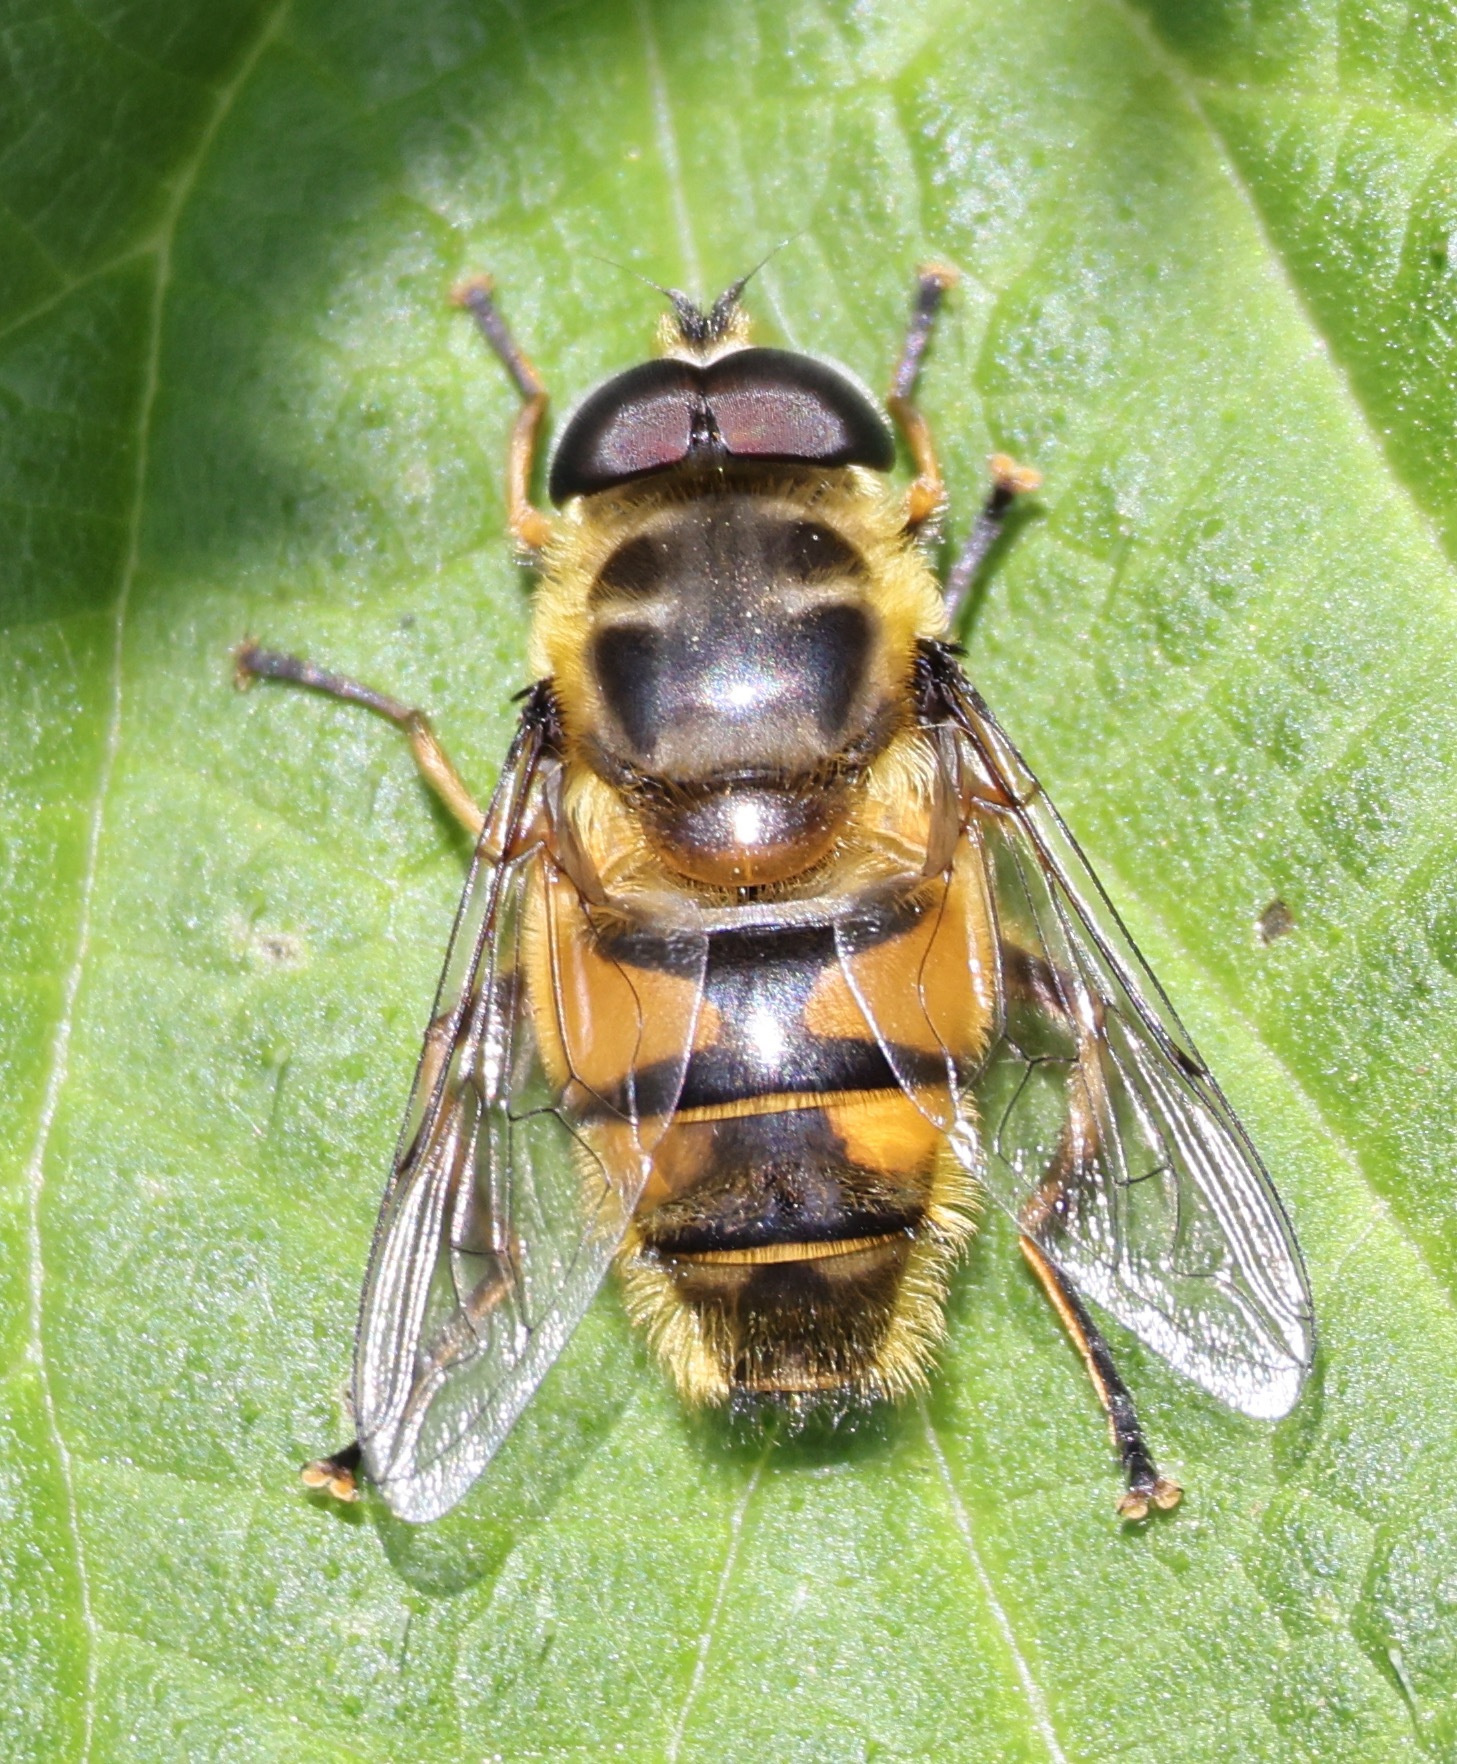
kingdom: Animalia
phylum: Arthropoda
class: Insecta
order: Diptera
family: Syrphidae
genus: Myathropa
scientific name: Myathropa florea
